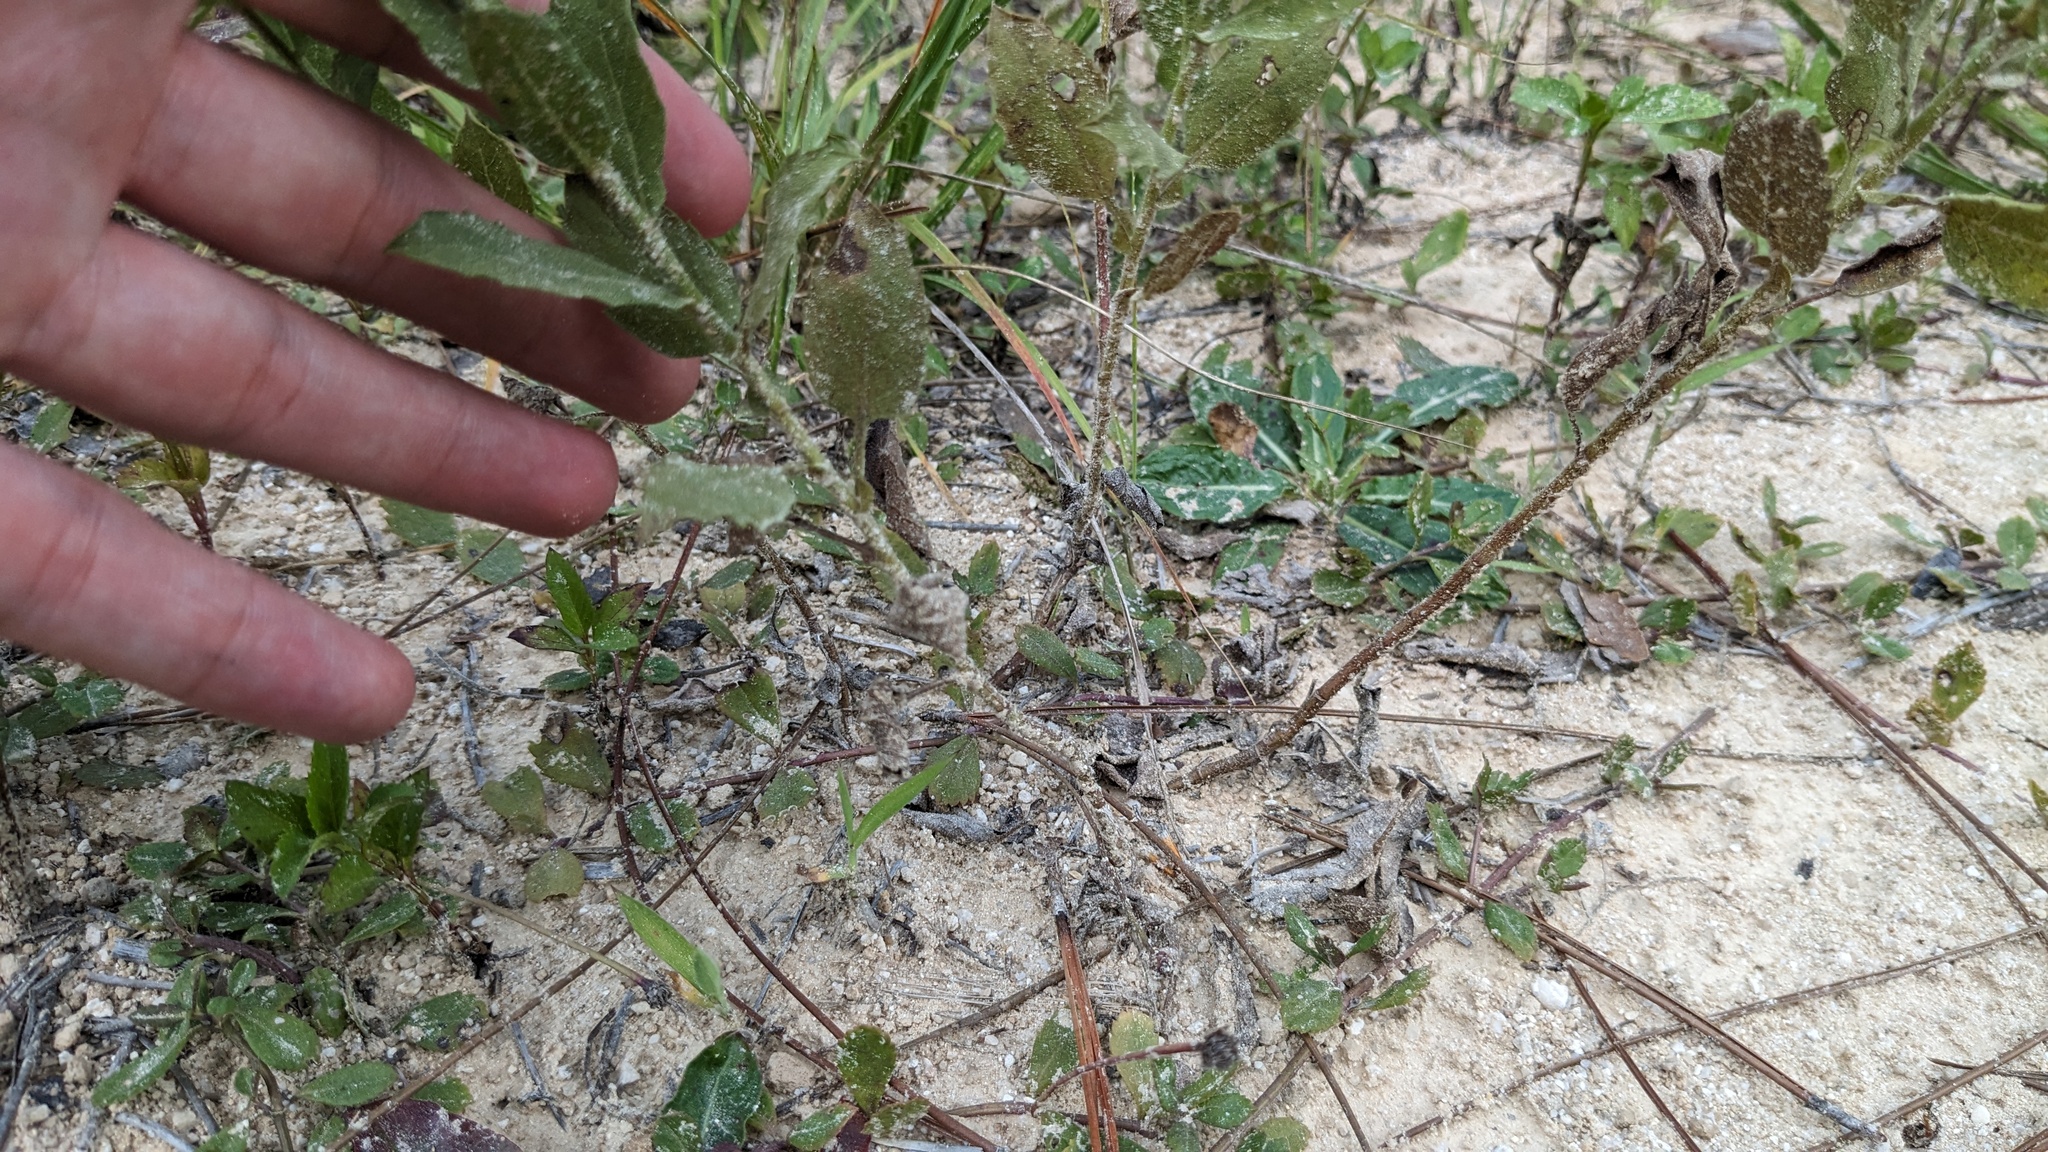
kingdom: Plantae
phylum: Tracheophyta
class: Magnoliopsida
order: Asterales
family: Asteraceae
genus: Heterotheca
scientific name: Heterotheca subaxillaris
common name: Camphorweed
